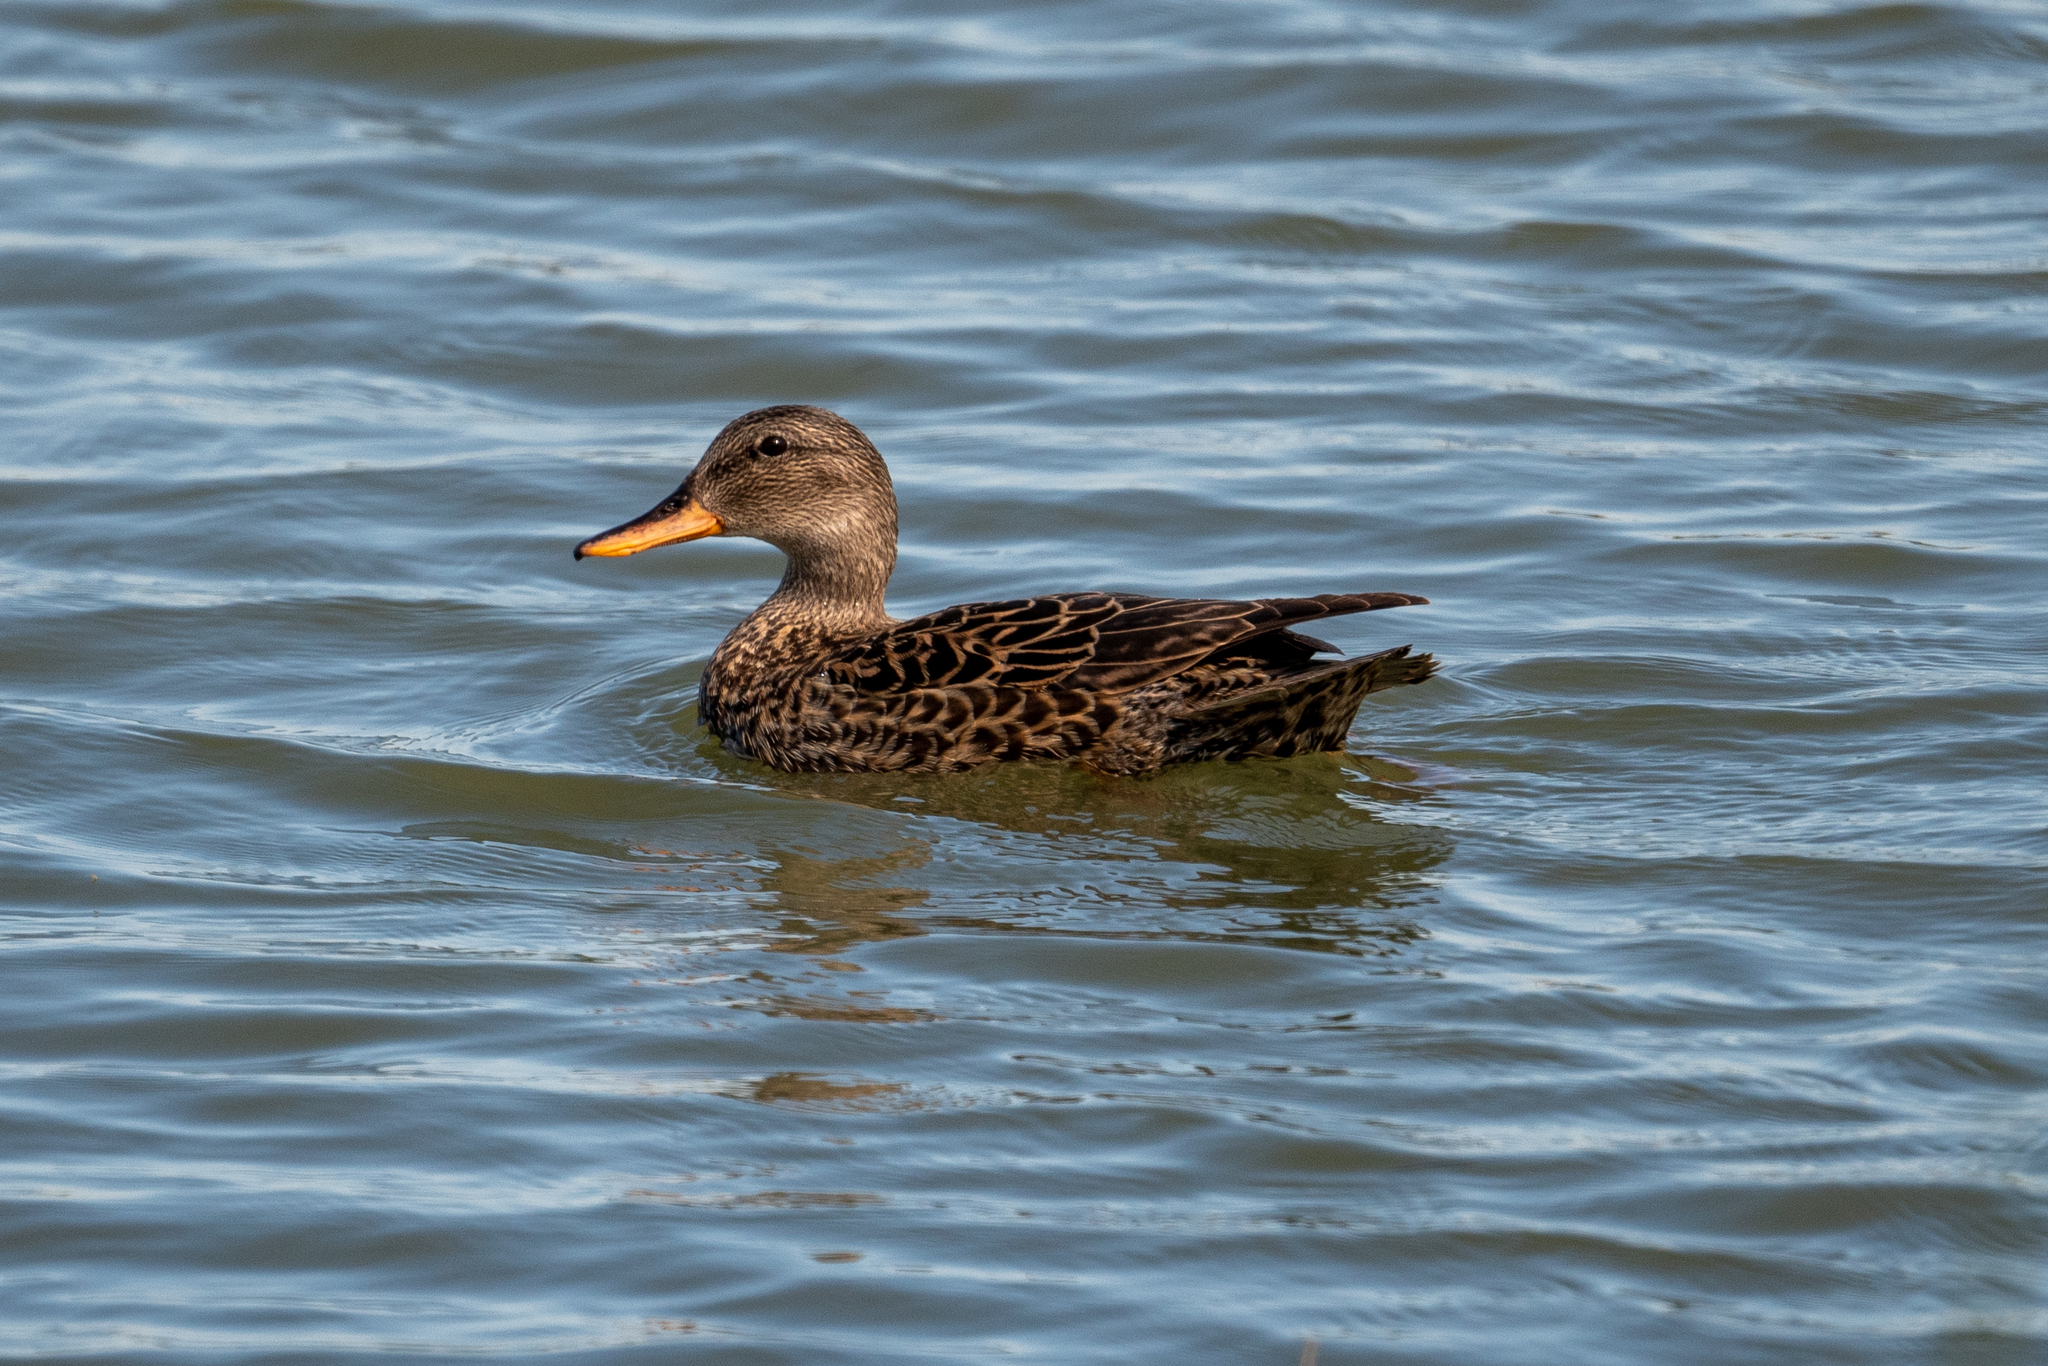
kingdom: Animalia
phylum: Chordata
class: Aves
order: Anseriformes
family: Anatidae
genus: Mareca
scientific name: Mareca strepera
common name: Gadwall
